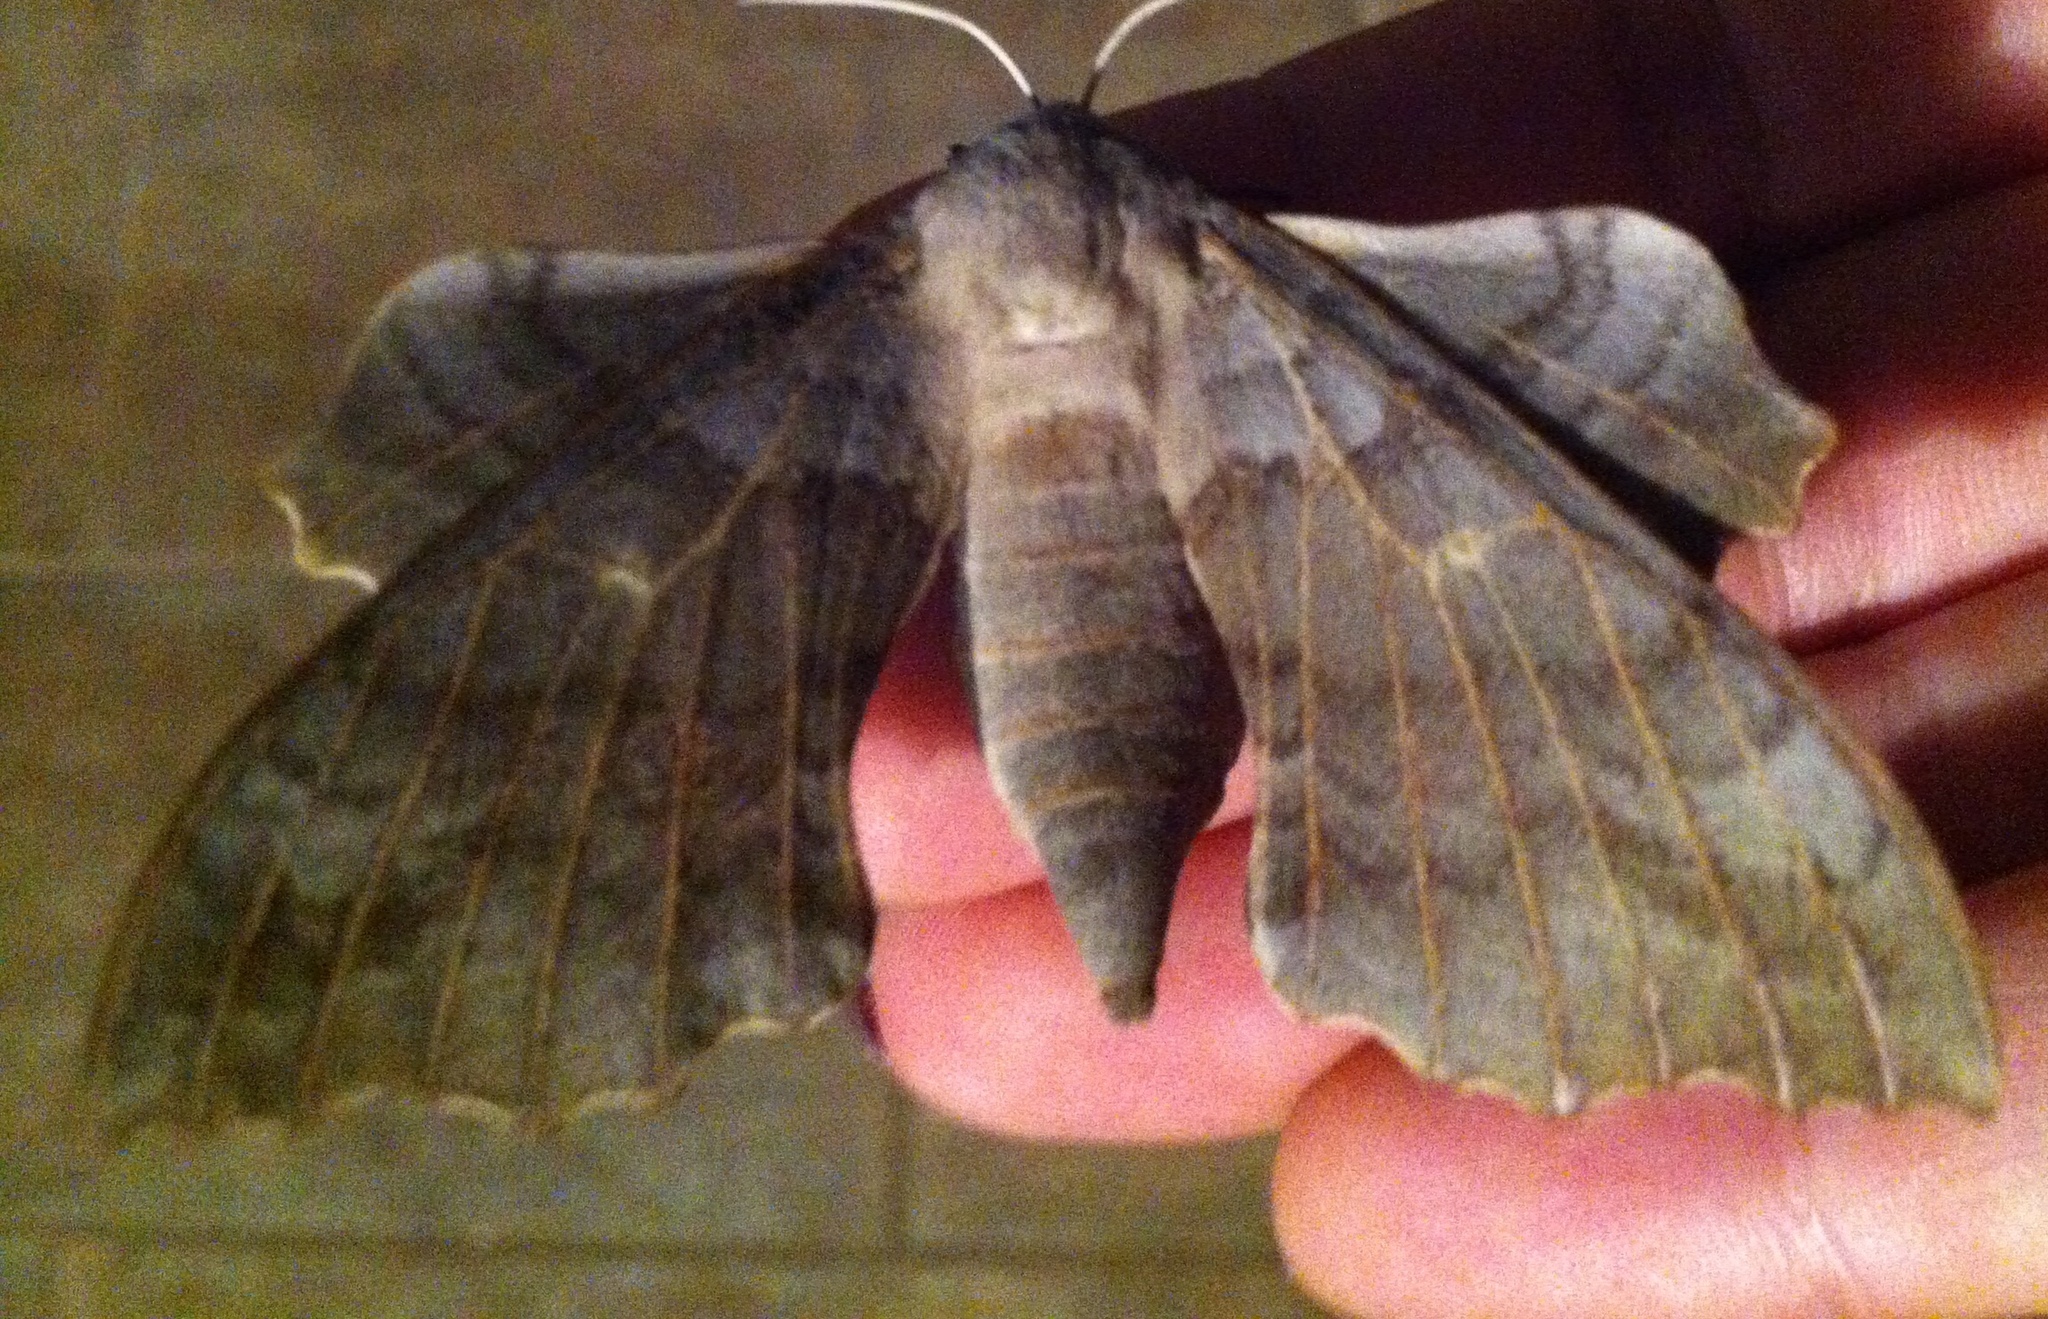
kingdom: Animalia
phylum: Arthropoda
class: Insecta
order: Lepidoptera
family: Sphingidae
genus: Laothoe
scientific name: Laothoe populi
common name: Poplar hawk-moth
